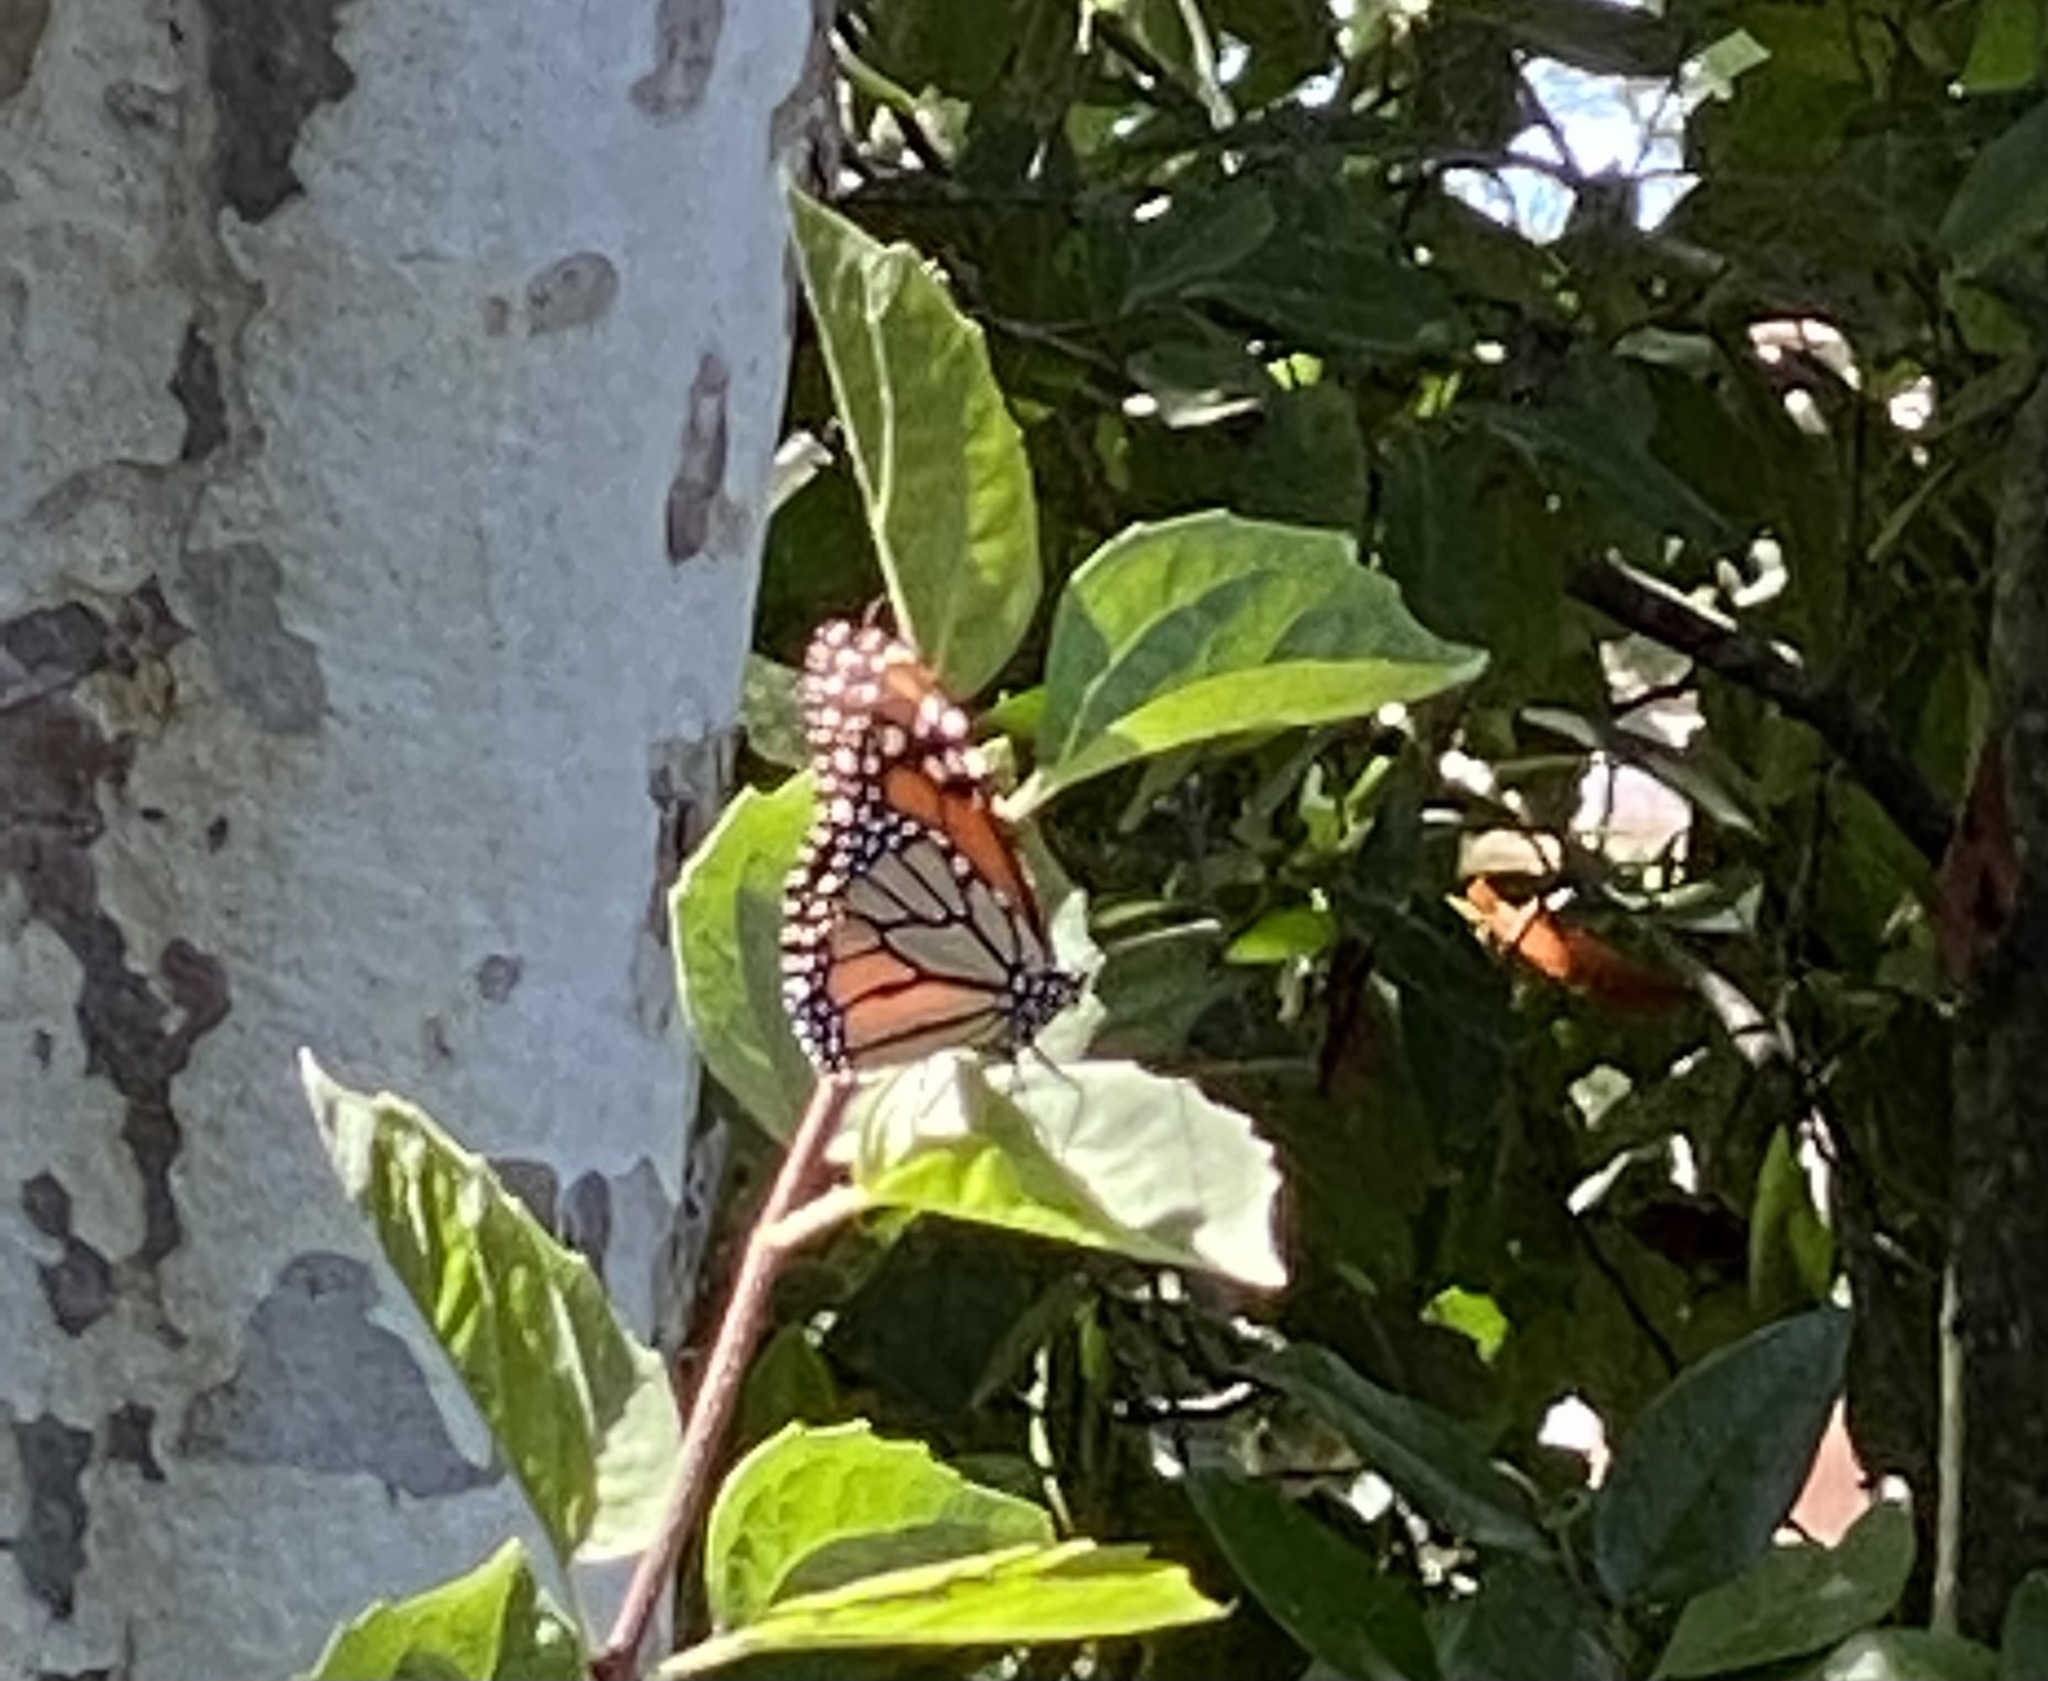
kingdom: Animalia
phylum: Arthropoda
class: Insecta
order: Lepidoptera
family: Nymphalidae
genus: Danaus
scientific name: Danaus plexippus
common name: Monarch
